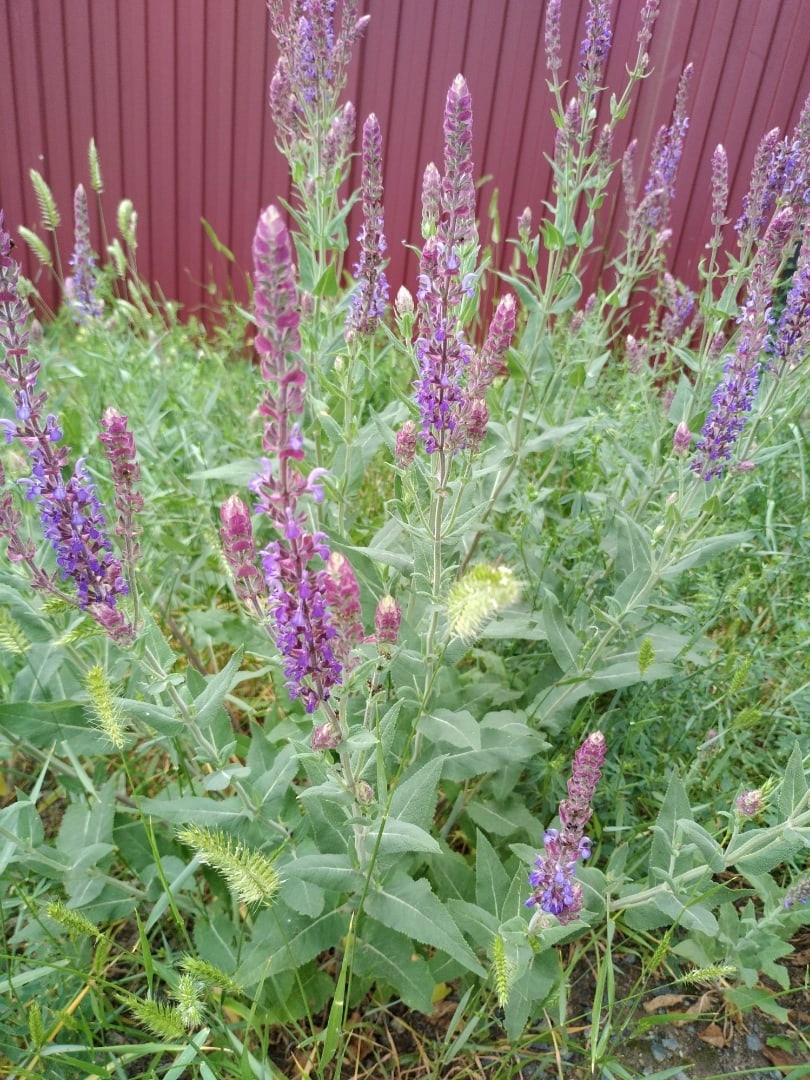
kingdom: Plantae
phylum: Tracheophyta
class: Magnoliopsida
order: Lamiales
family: Lamiaceae
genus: Salvia
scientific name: Salvia nemorosa
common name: Balkan clary
